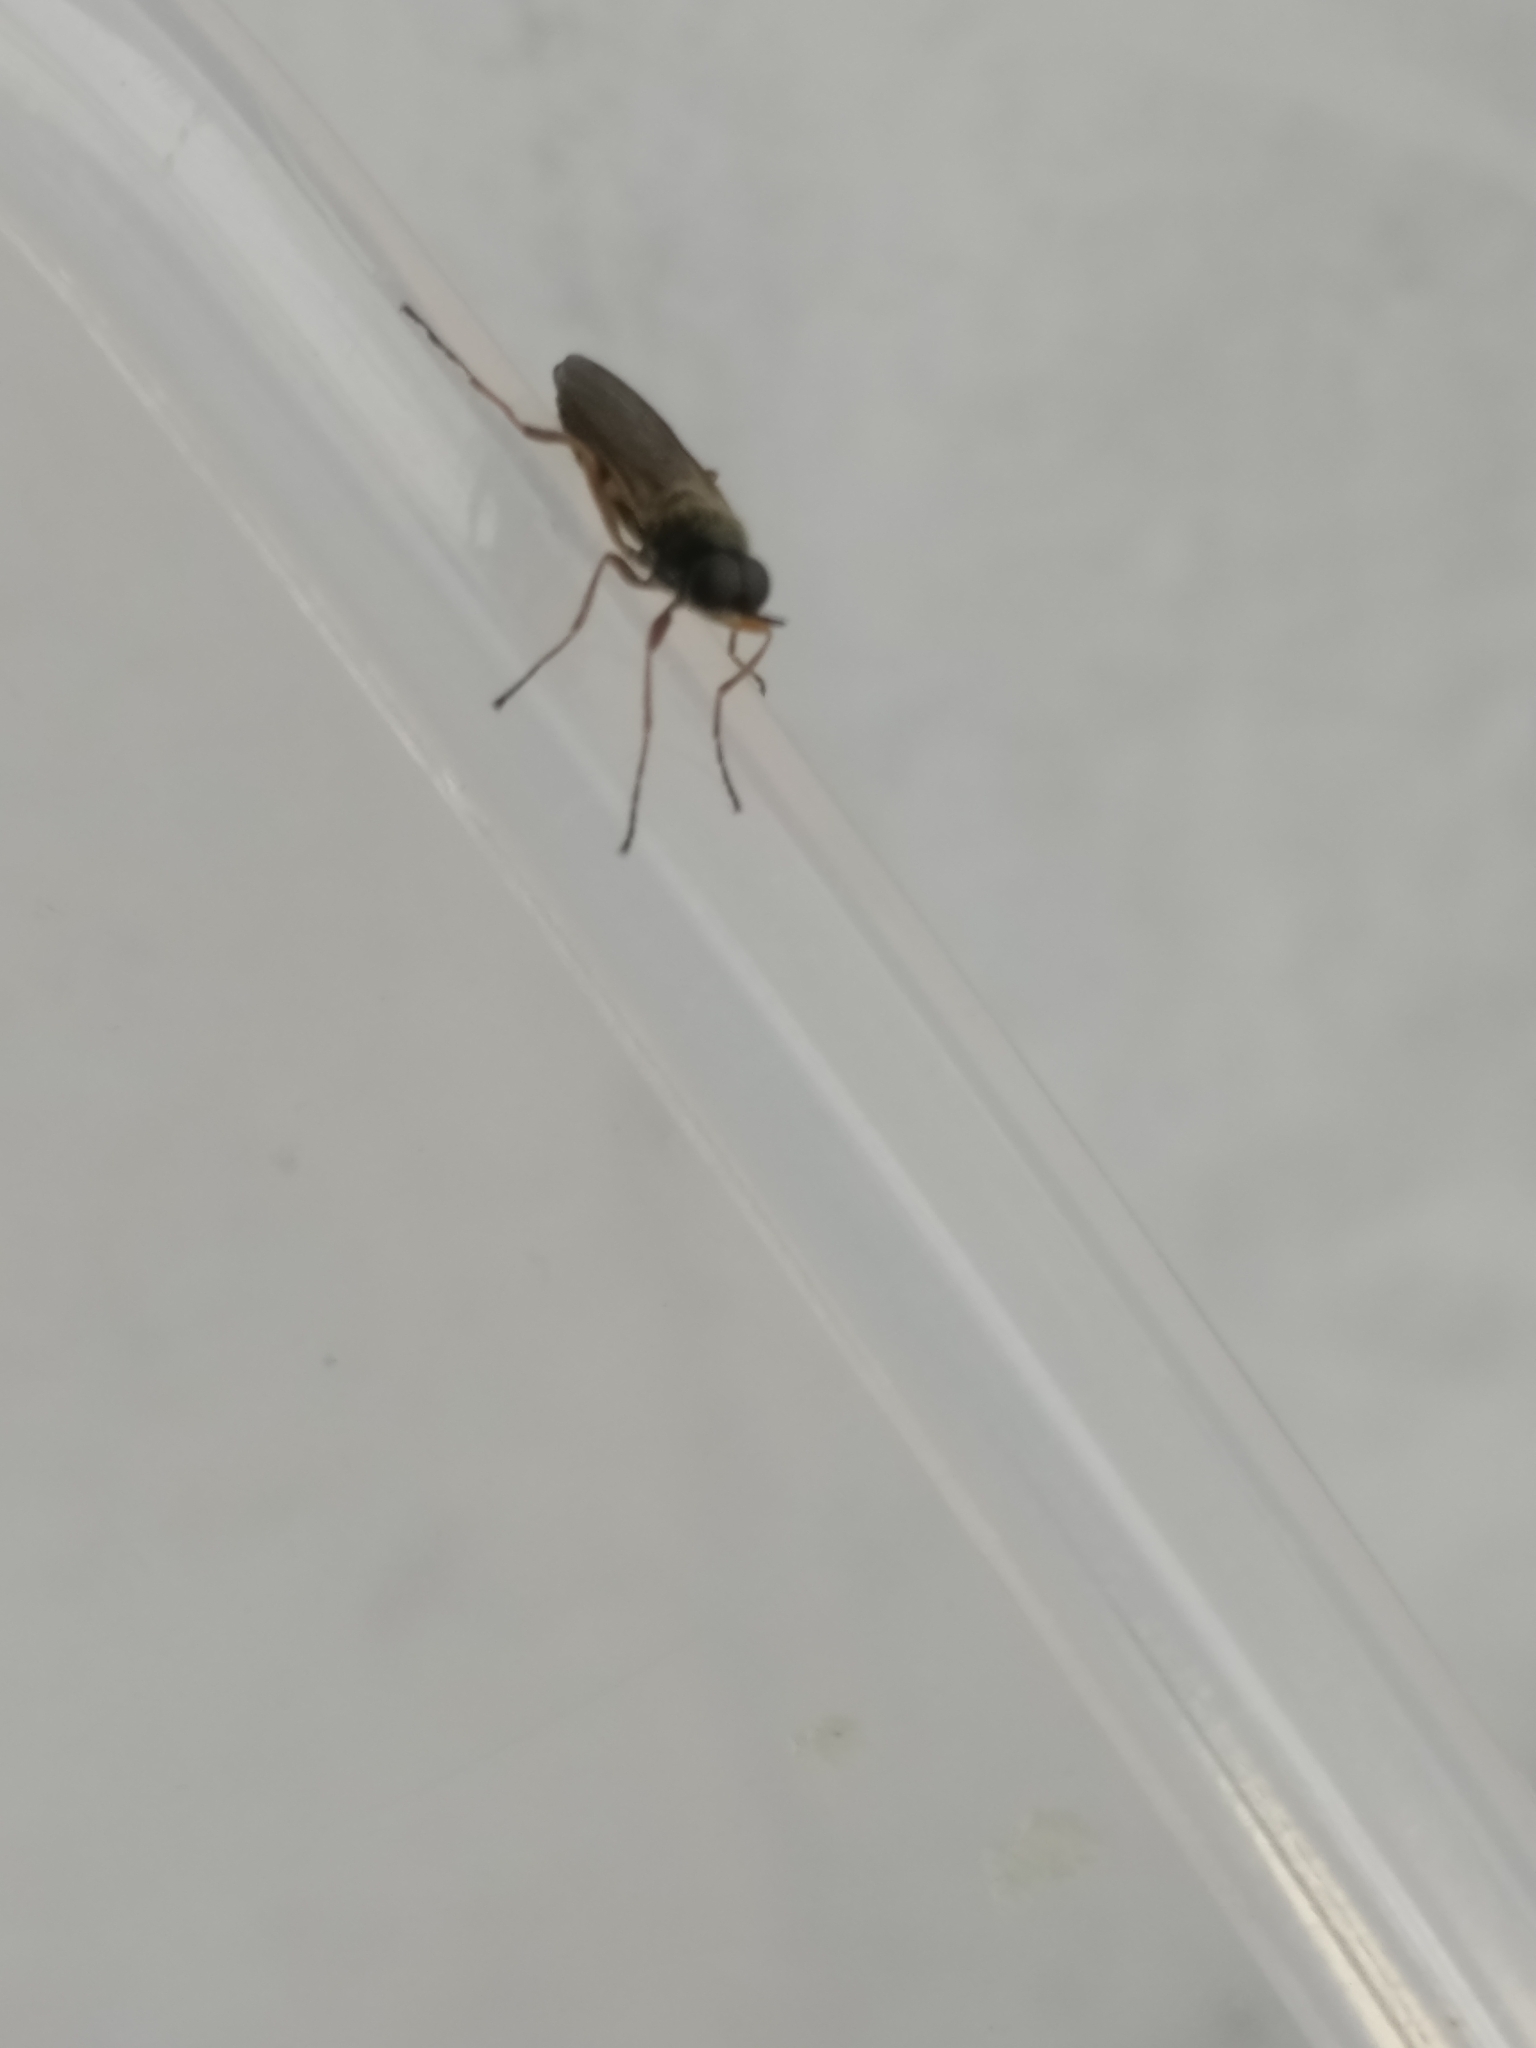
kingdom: Animalia
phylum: Arthropoda
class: Insecta
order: Diptera
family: Stratiomyidae
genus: Inopus
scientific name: Inopus rubriceps
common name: Soldier fly
